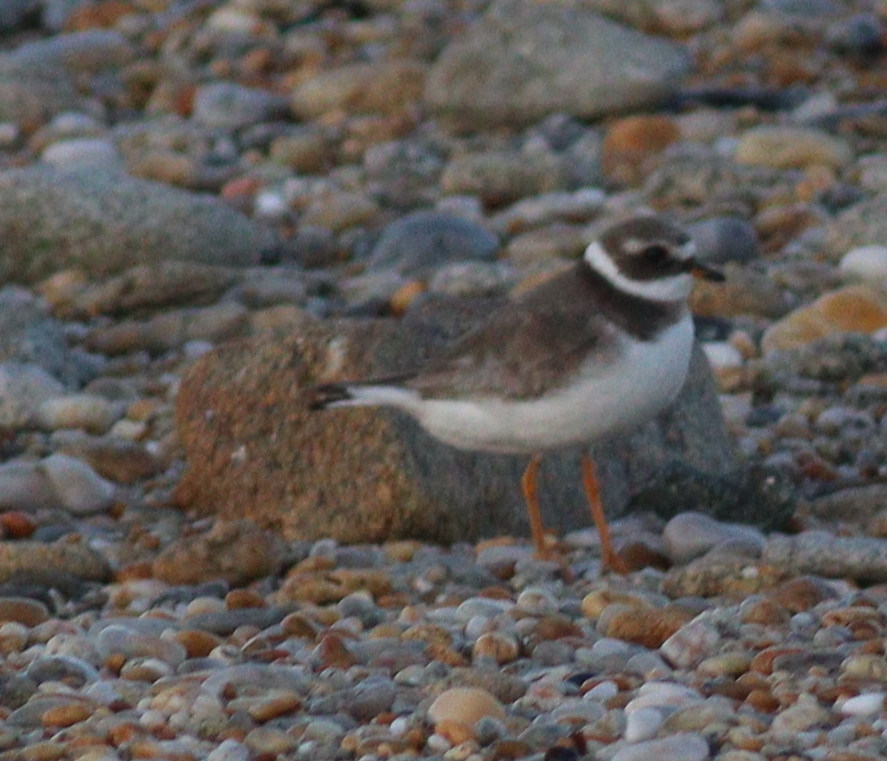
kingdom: Animalia
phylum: Chordata
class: Aves
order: Charadriiformes
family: Charadriidae
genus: Charadrius
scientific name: Charadrius hiaticula
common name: Common ringed plover
